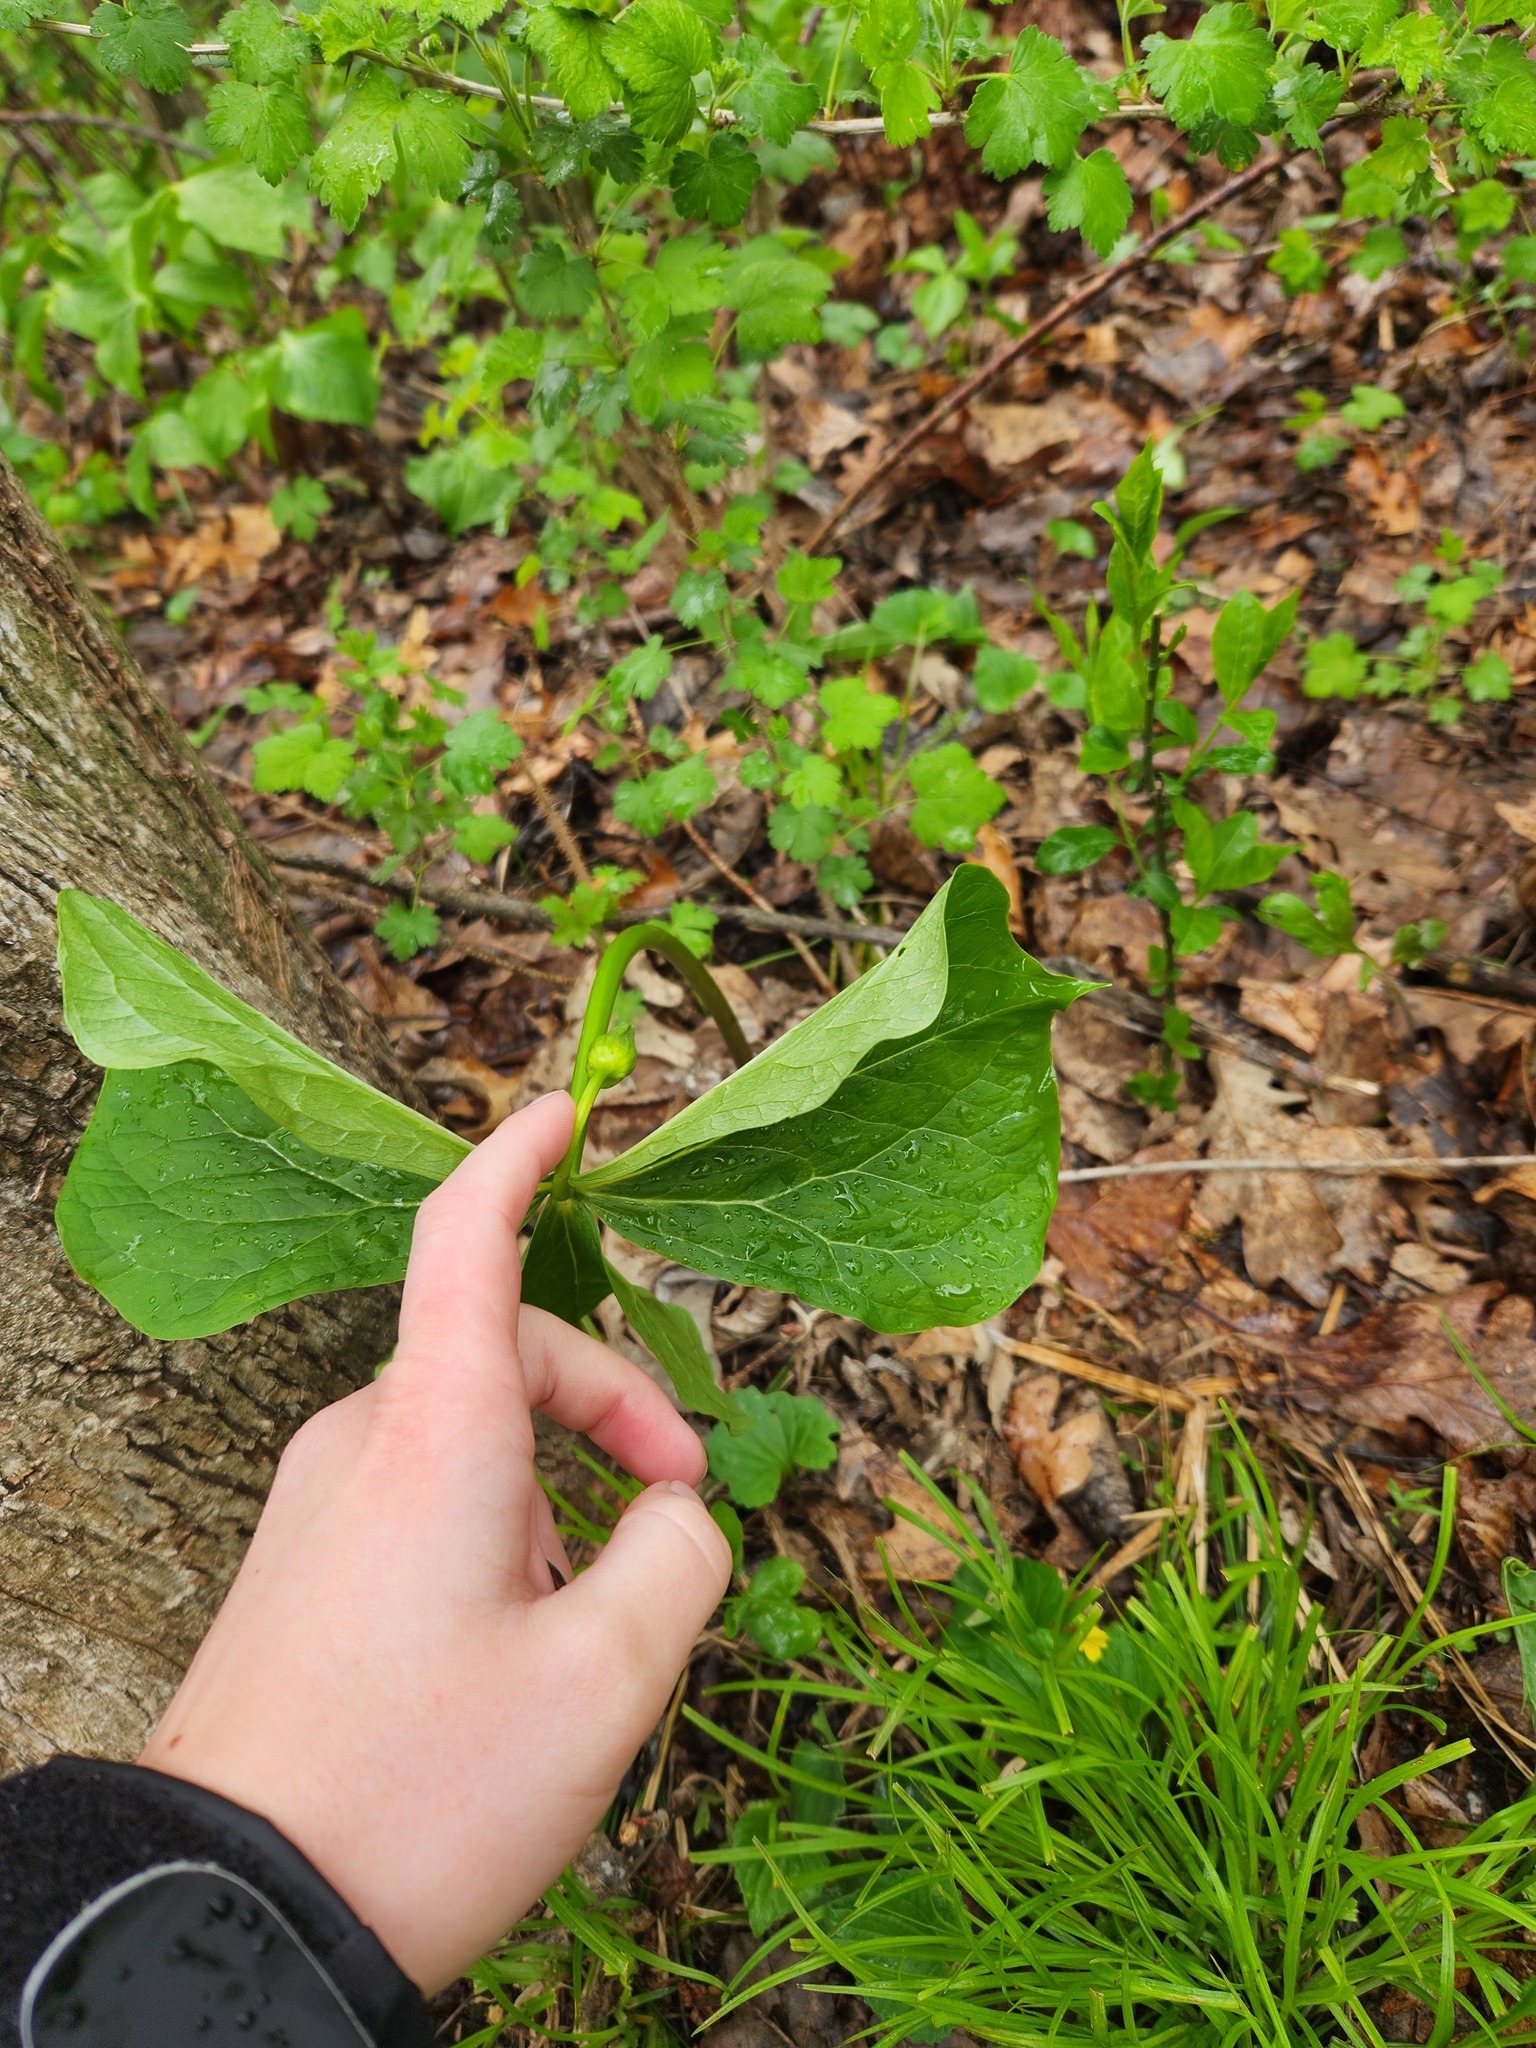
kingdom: Plantae
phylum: Tracheophyta
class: Liliopsida
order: Liliales
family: Melanthiaceae
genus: Trillium
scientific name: Trillium flexipes
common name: Drooping trillium
